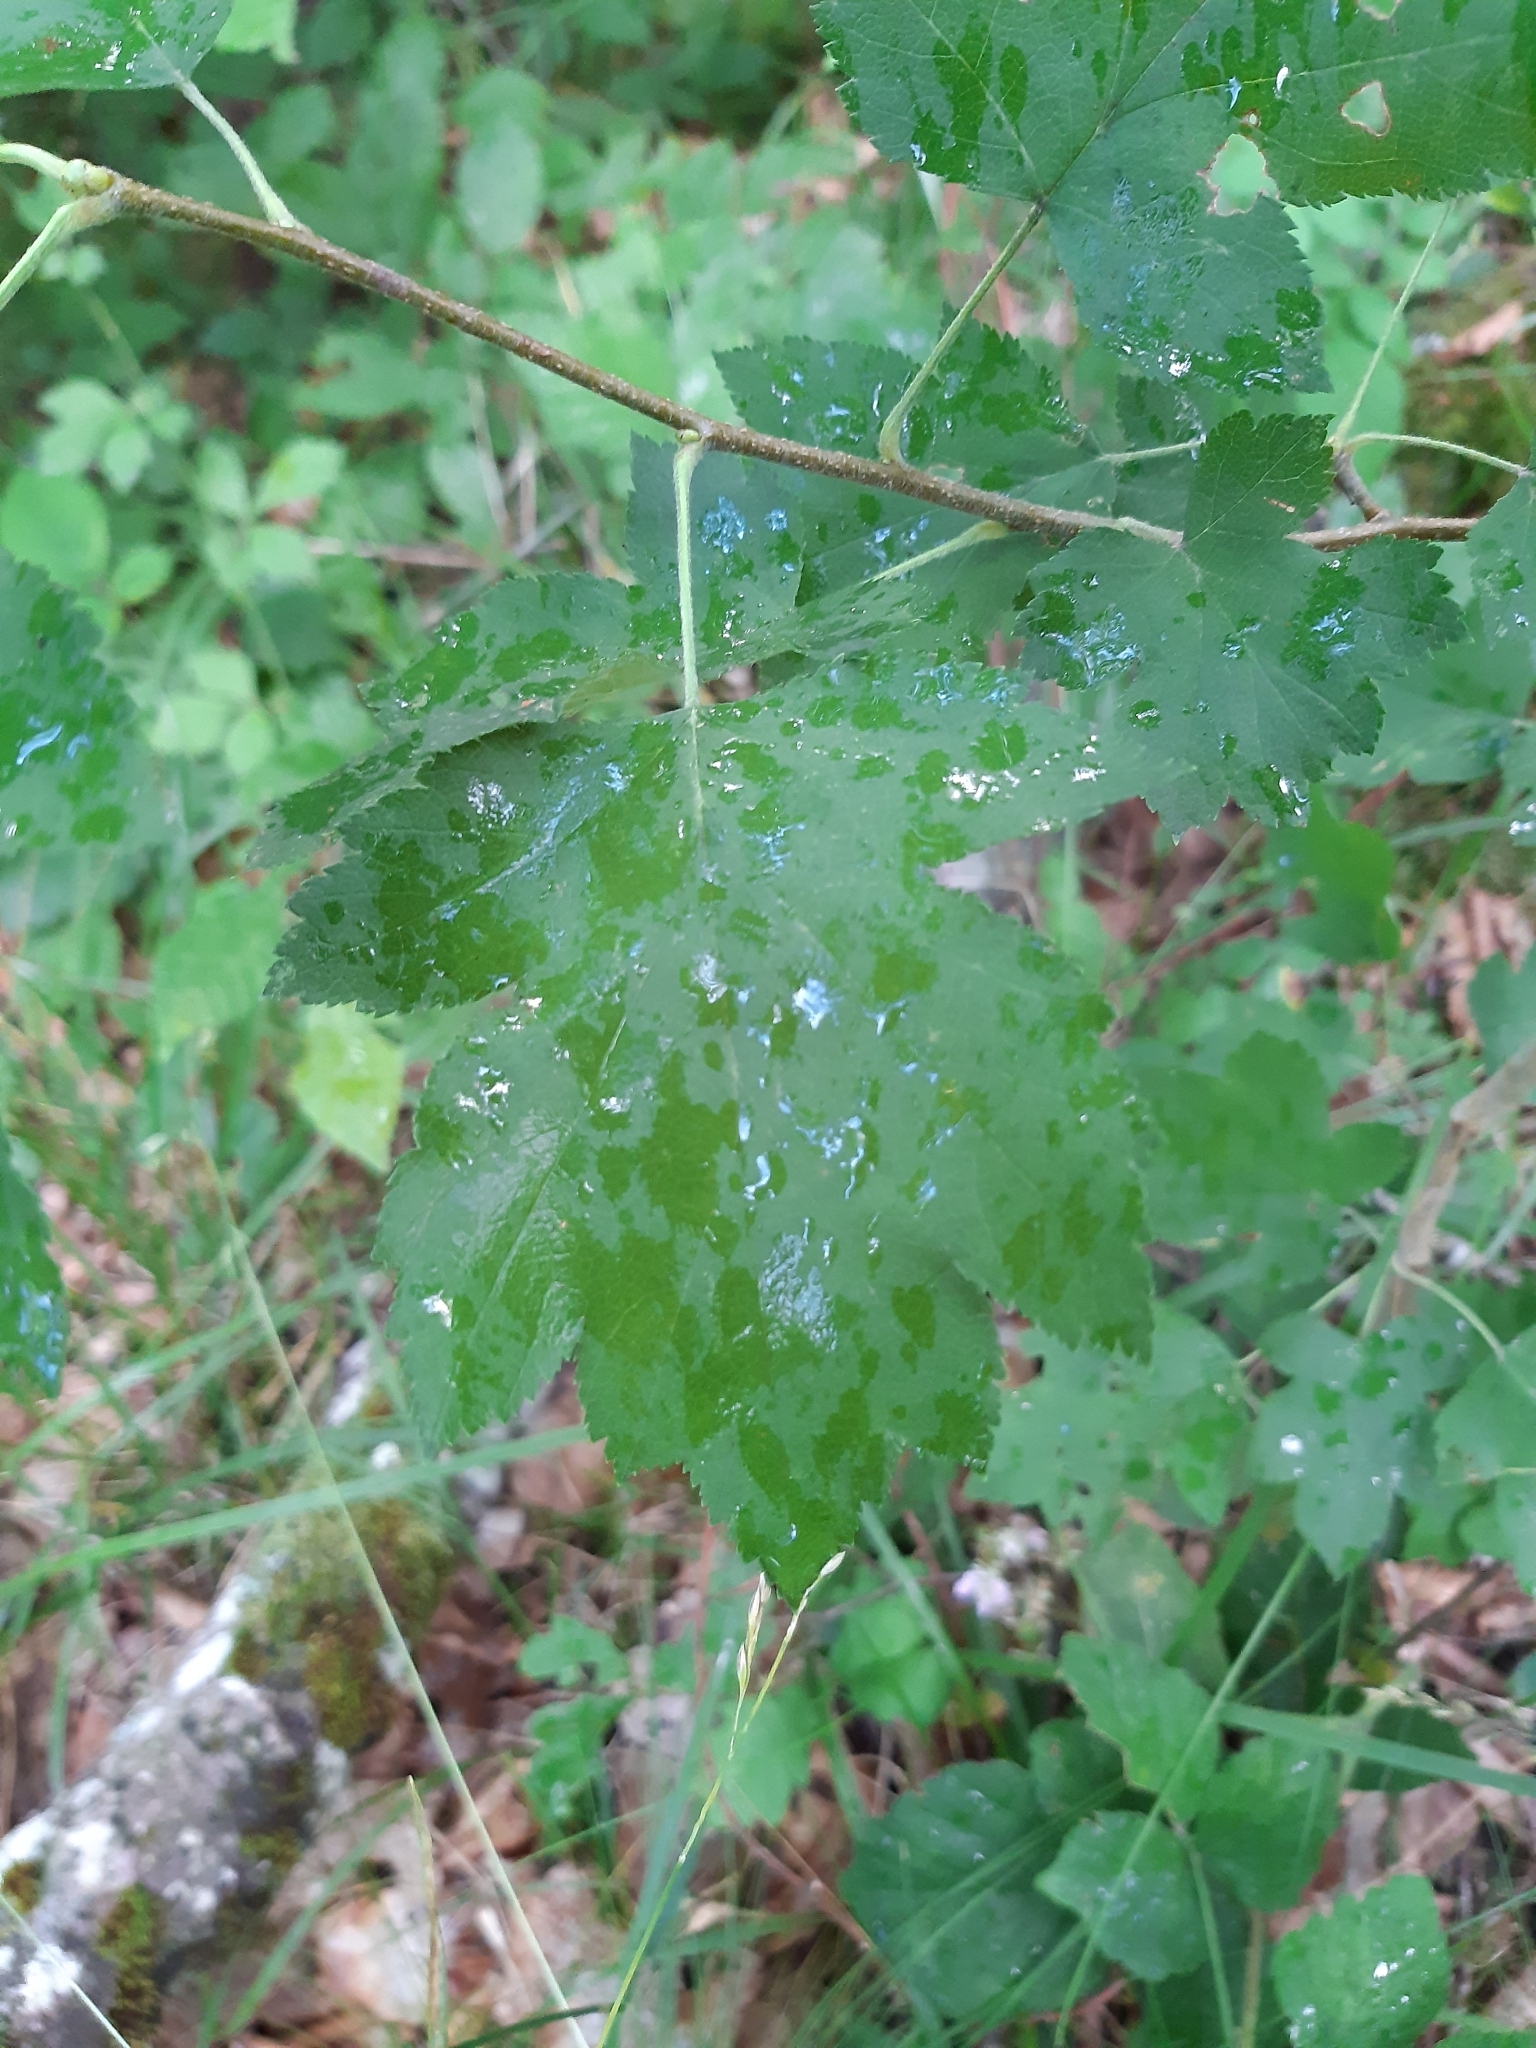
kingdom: Plantae
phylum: Tracheophyta
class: Magnoliopsida
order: Rosales
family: Rosaceae
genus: Torminalis
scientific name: Torminalis glaberrima
